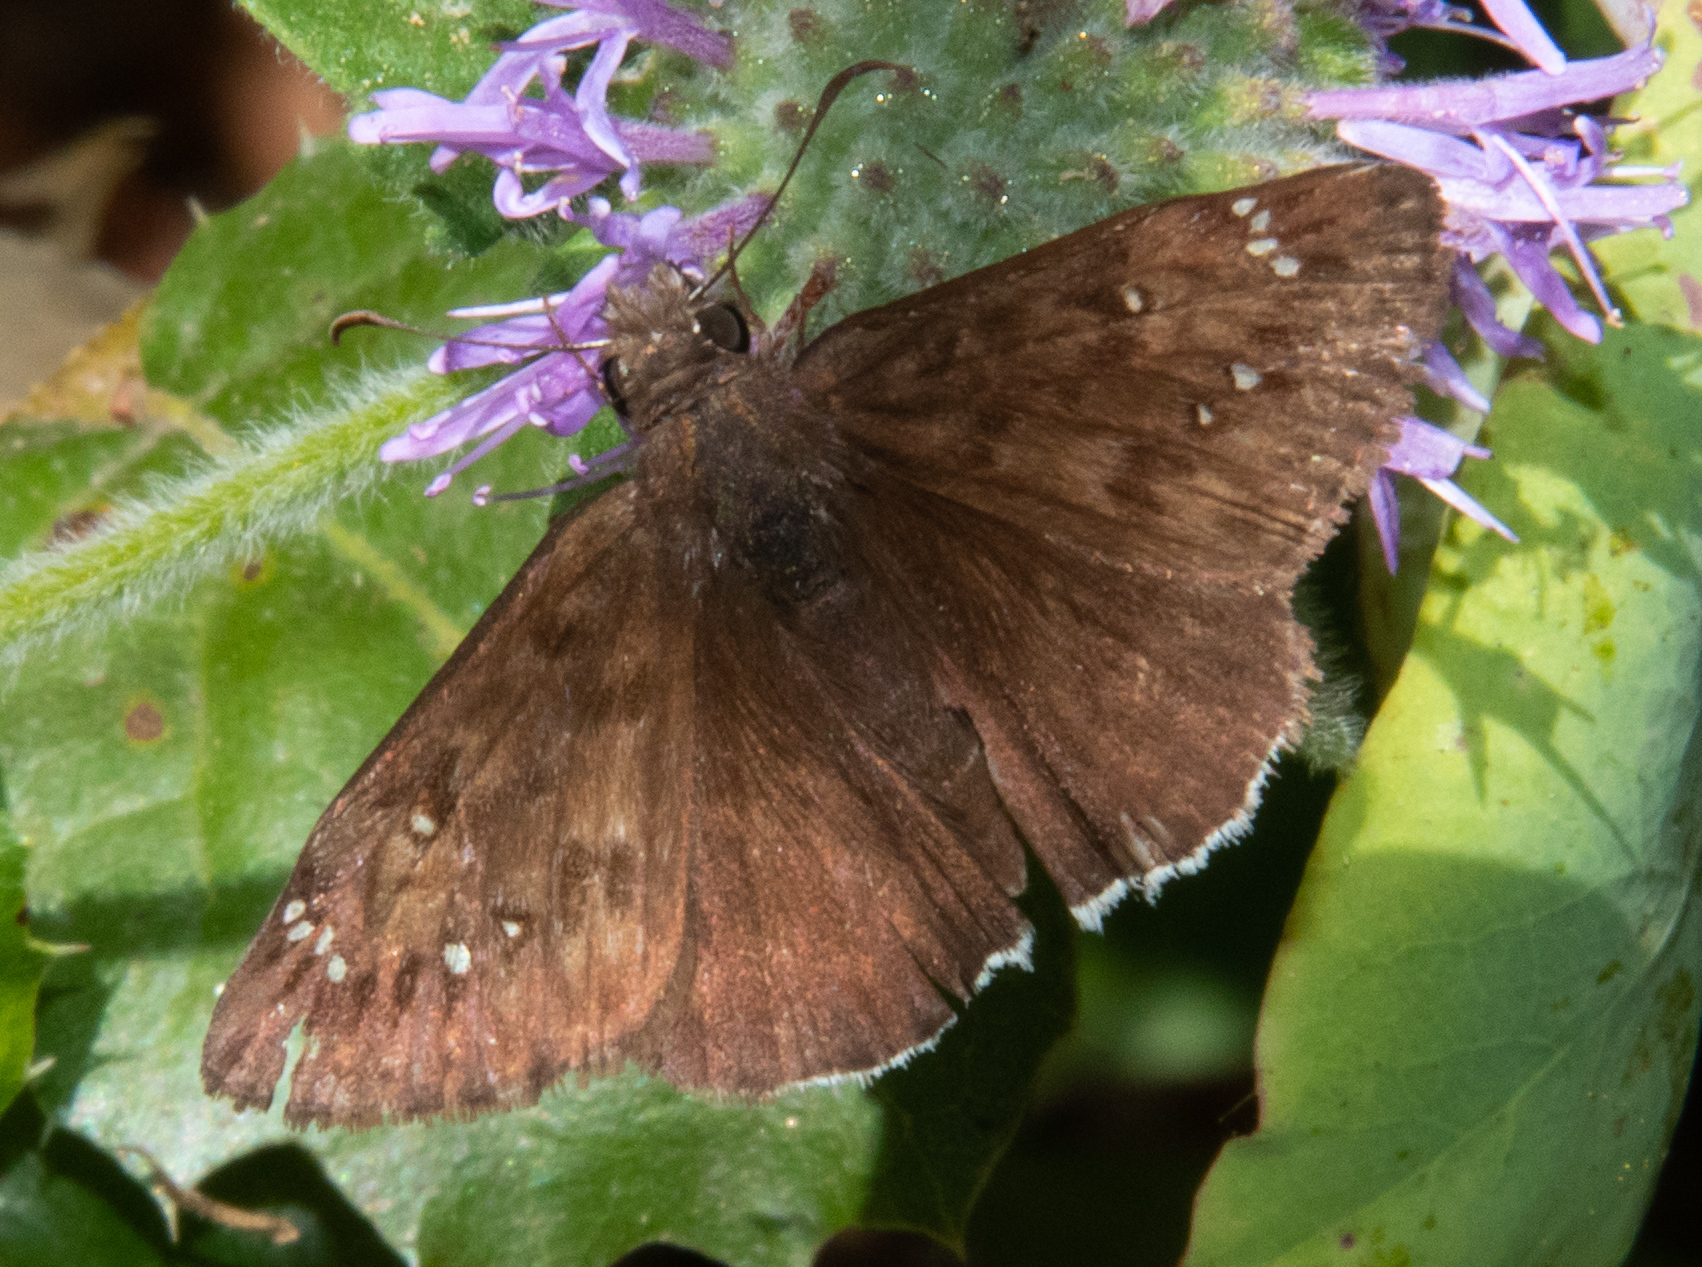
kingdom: Animalia
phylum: Arthropoda
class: Insecta
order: Lepidoptera
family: Hesperiidae
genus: Erynnis
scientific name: Erynnis tristis
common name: Mournful duskywing
